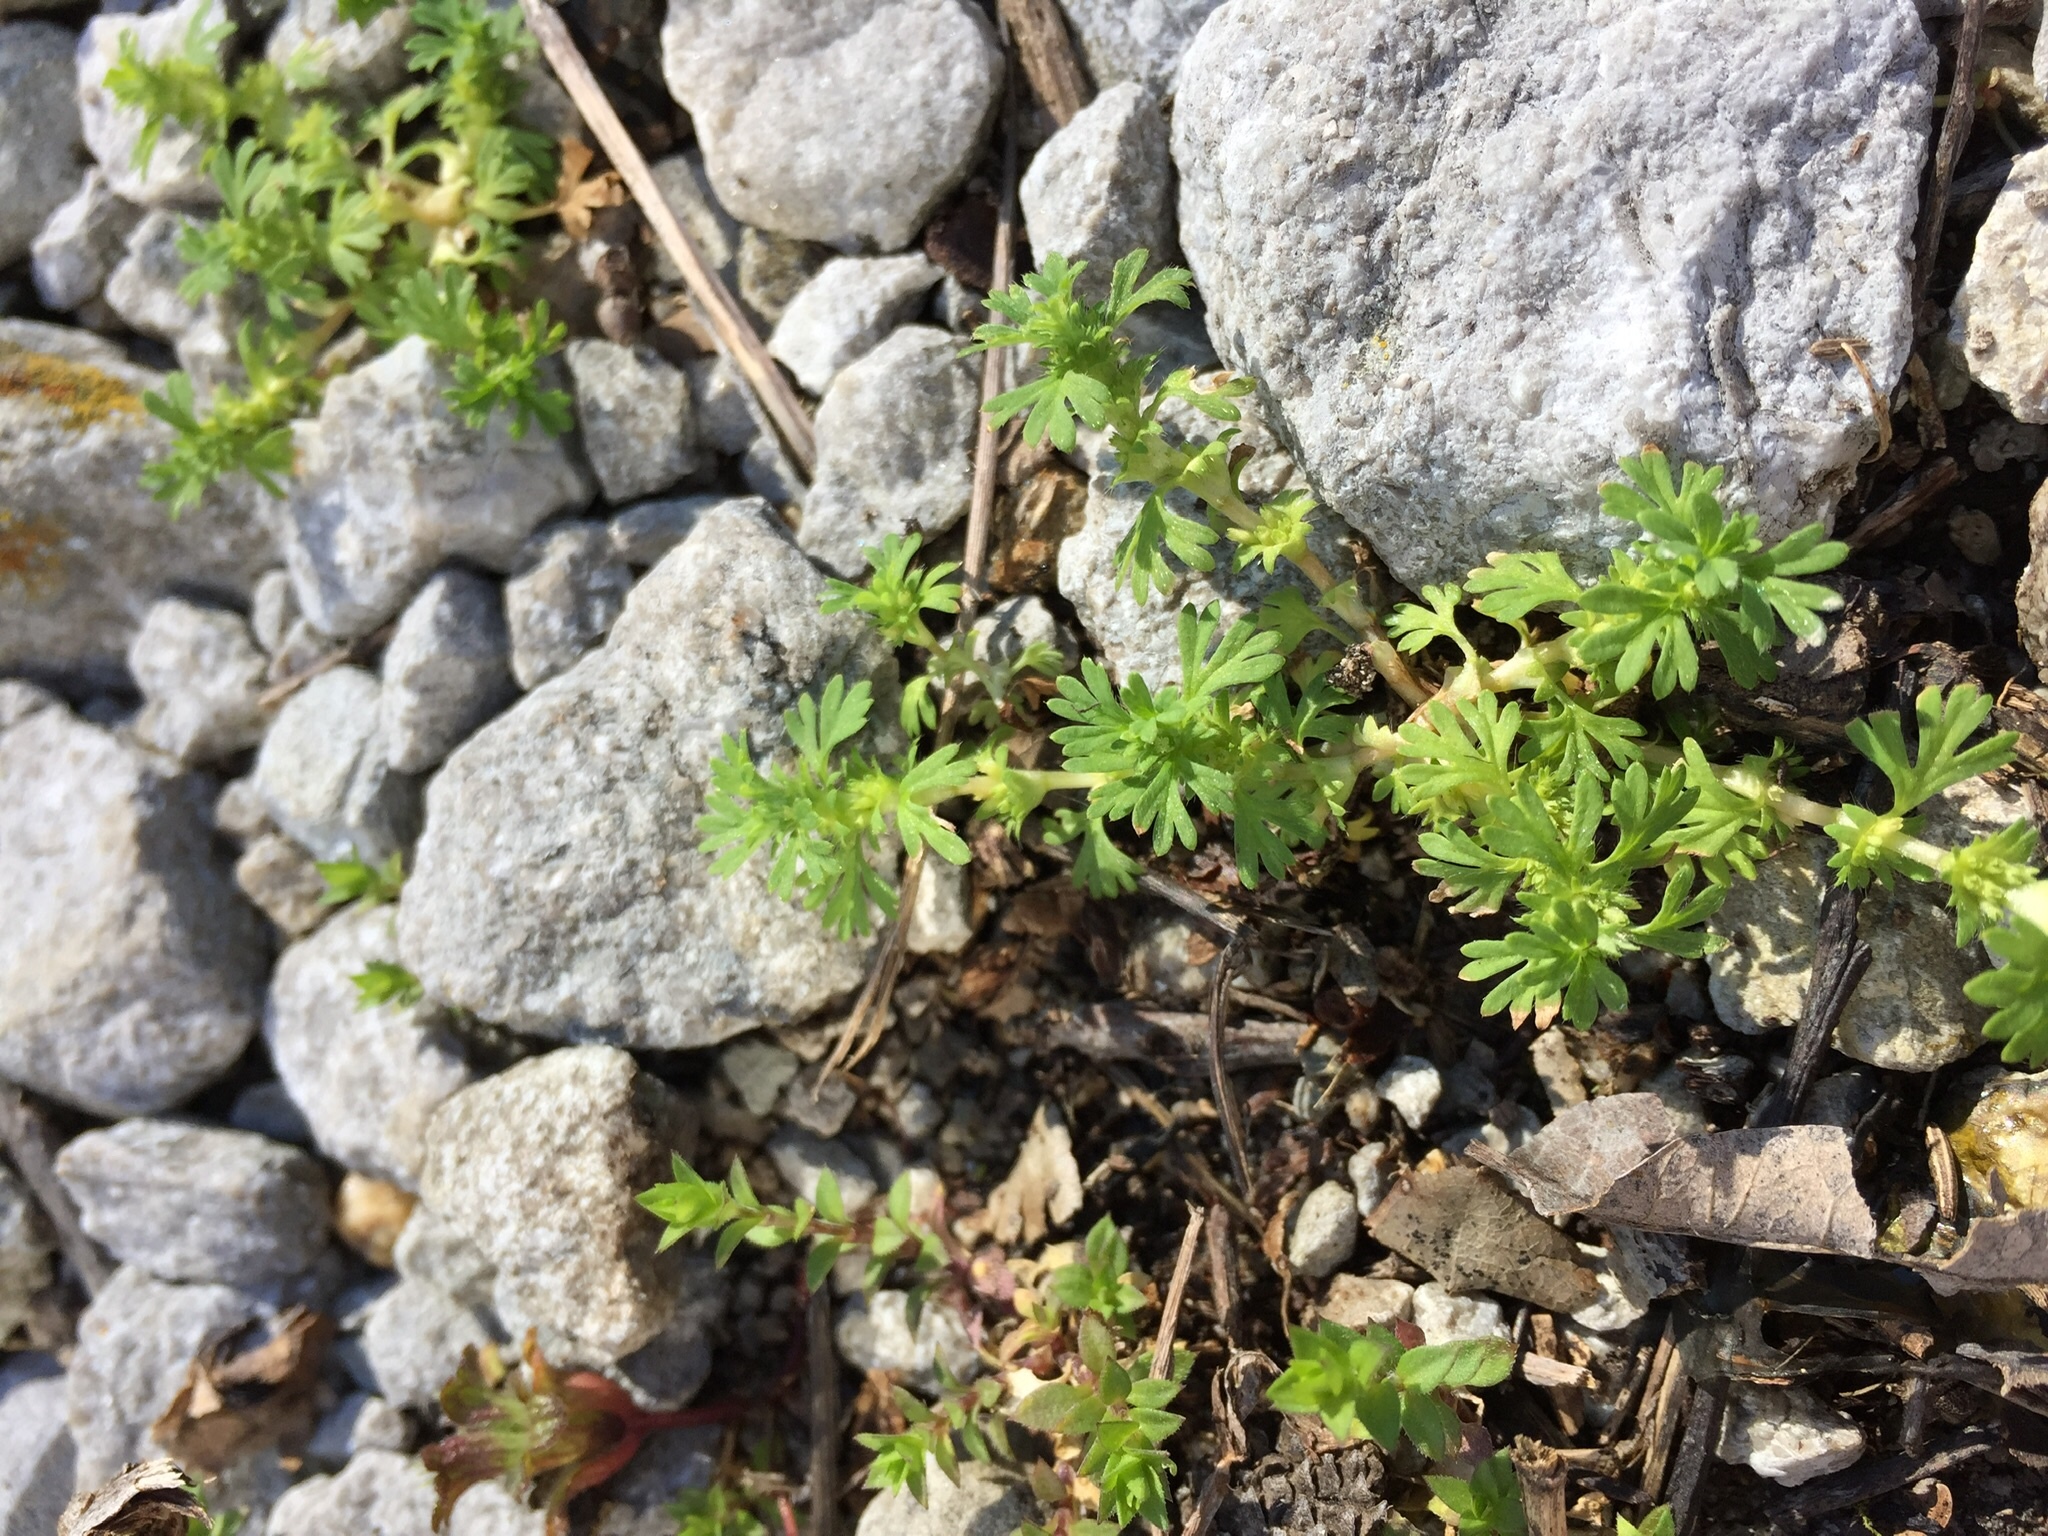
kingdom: Plantae
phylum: Tracheophyta
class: Magnoliopsida
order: Rosales
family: Rosaceae
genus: Aphanes
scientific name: Aphanes australis
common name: Slender parsley-piert
